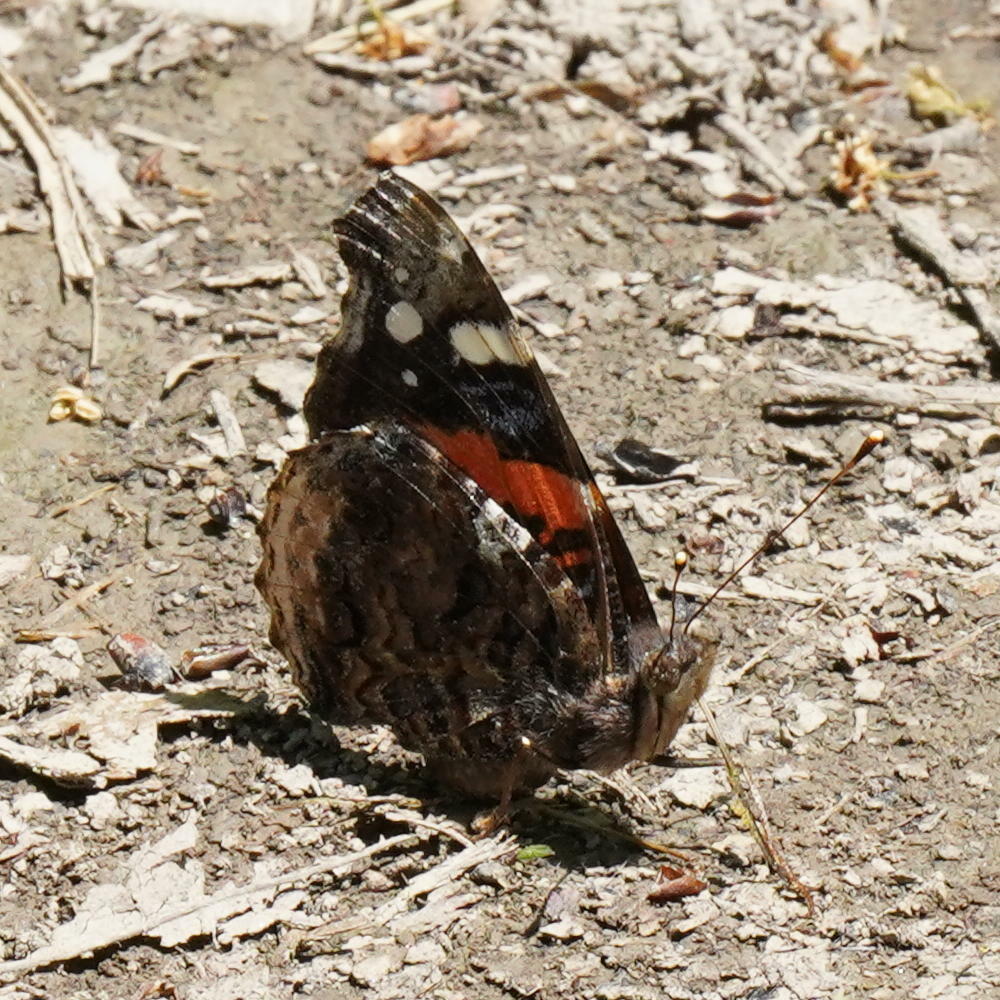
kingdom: Animalia
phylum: Arthropoda
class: Insecta
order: Lepidoptera
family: Nymphalidae
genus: Vanessa
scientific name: Vanessa atalanta
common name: Red admiral
